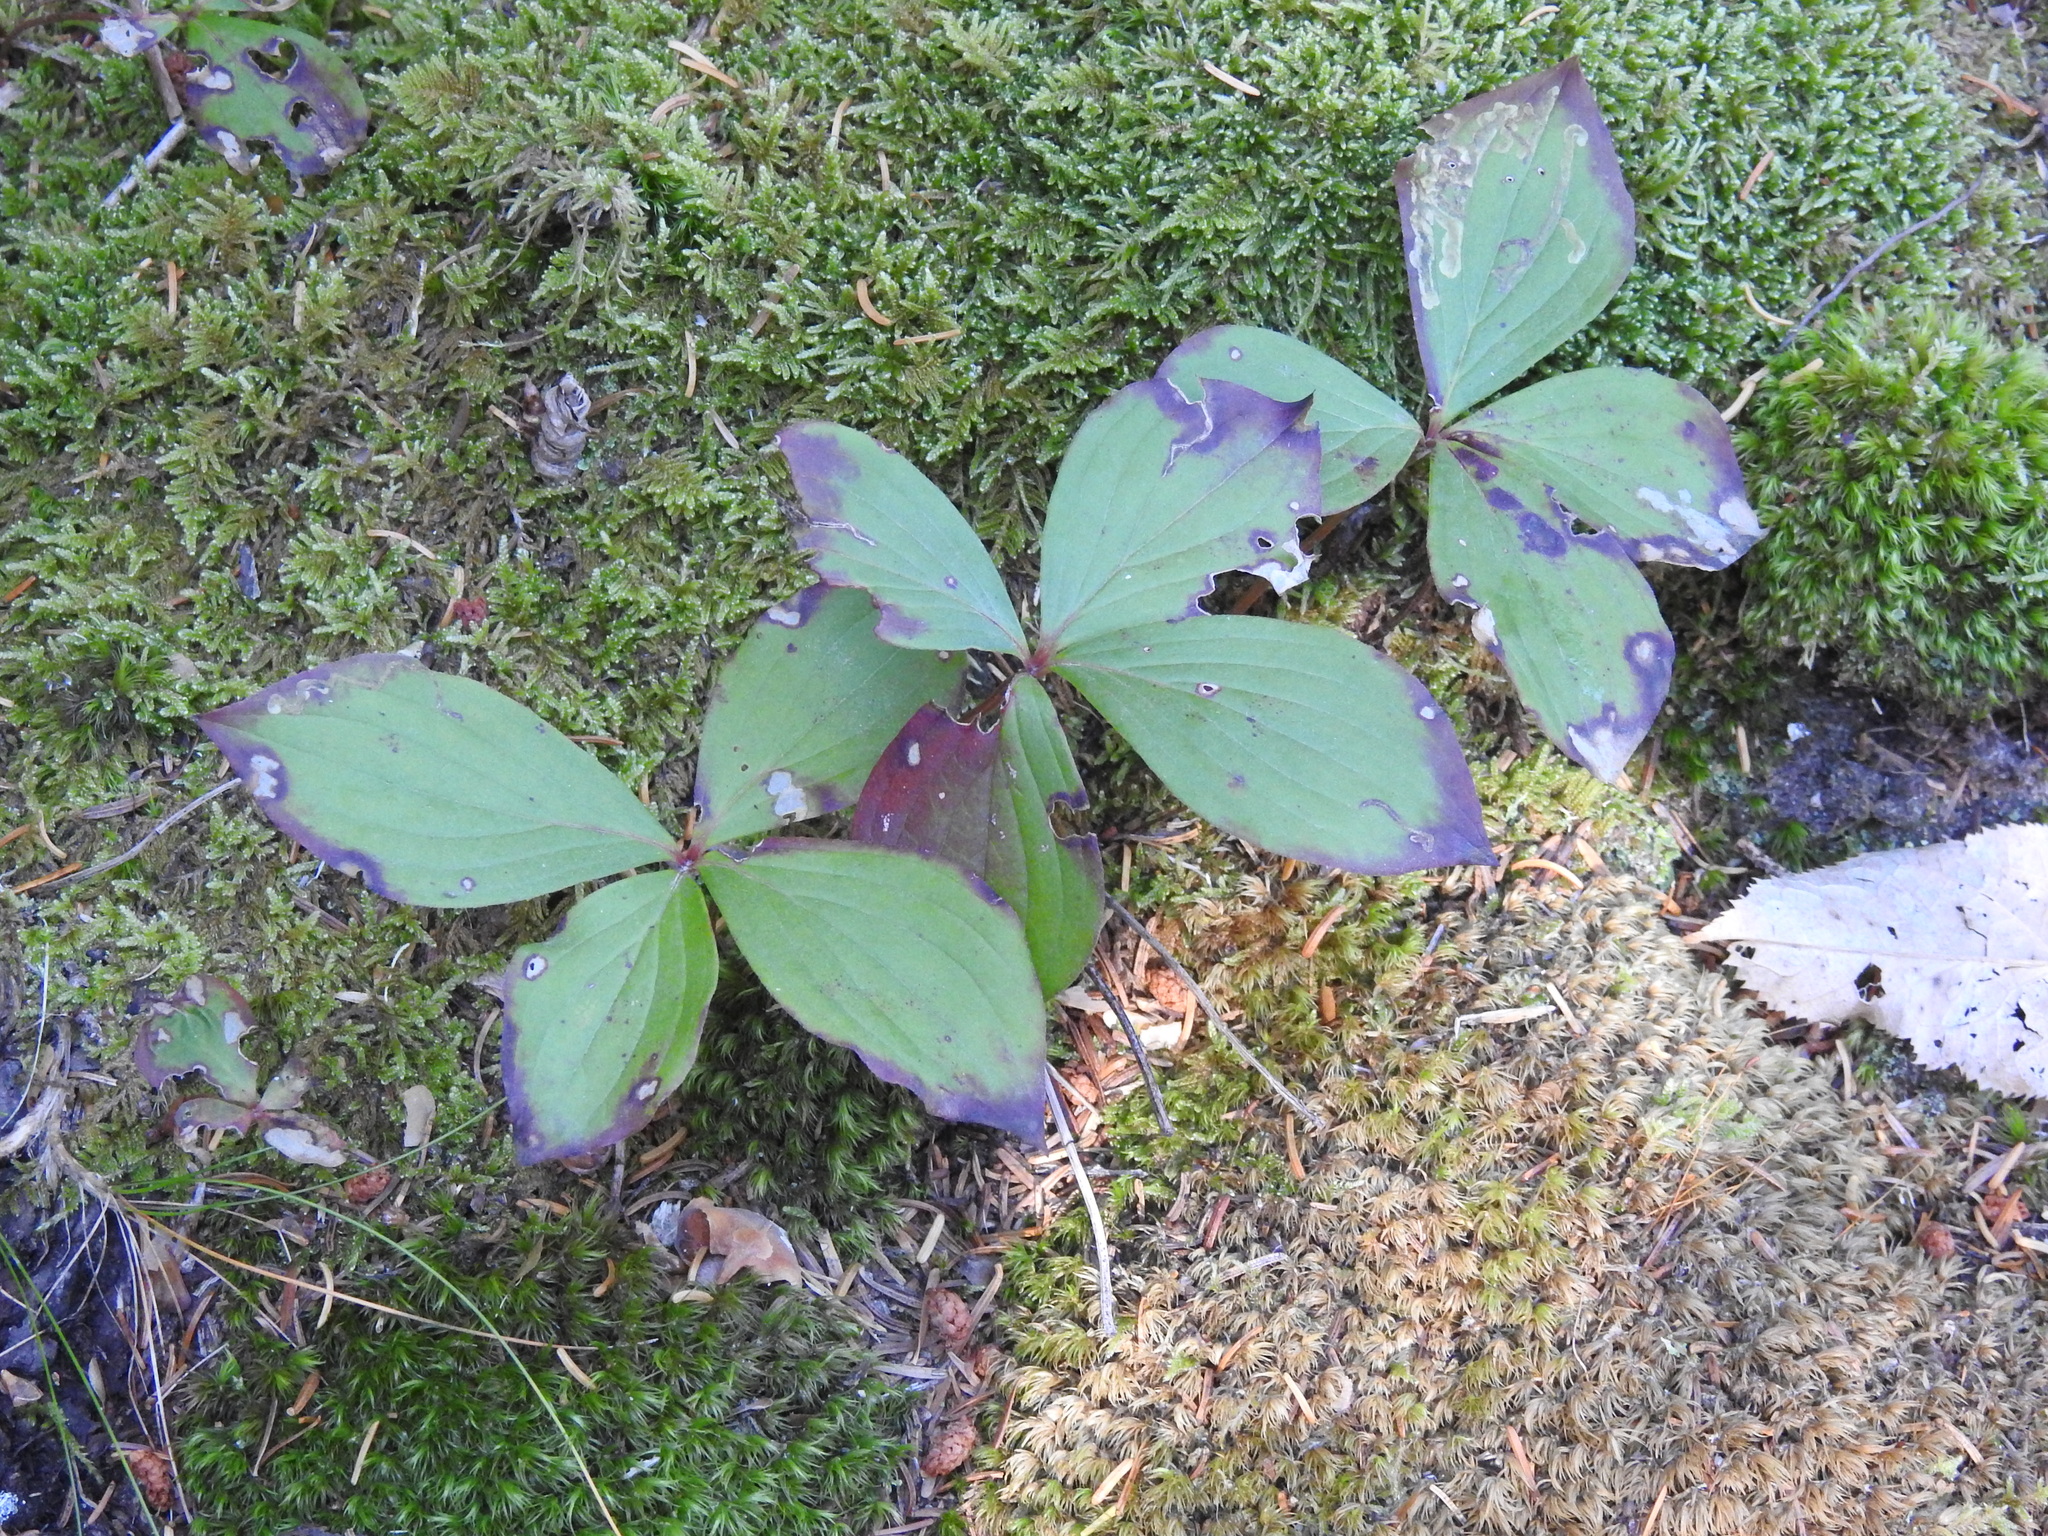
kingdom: Plantae
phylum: Tracheophyta
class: Magnoliopsida
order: Cornales
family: Cornaceae
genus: Cornus
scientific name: Cornus canadensis
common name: Creeping dogwood
